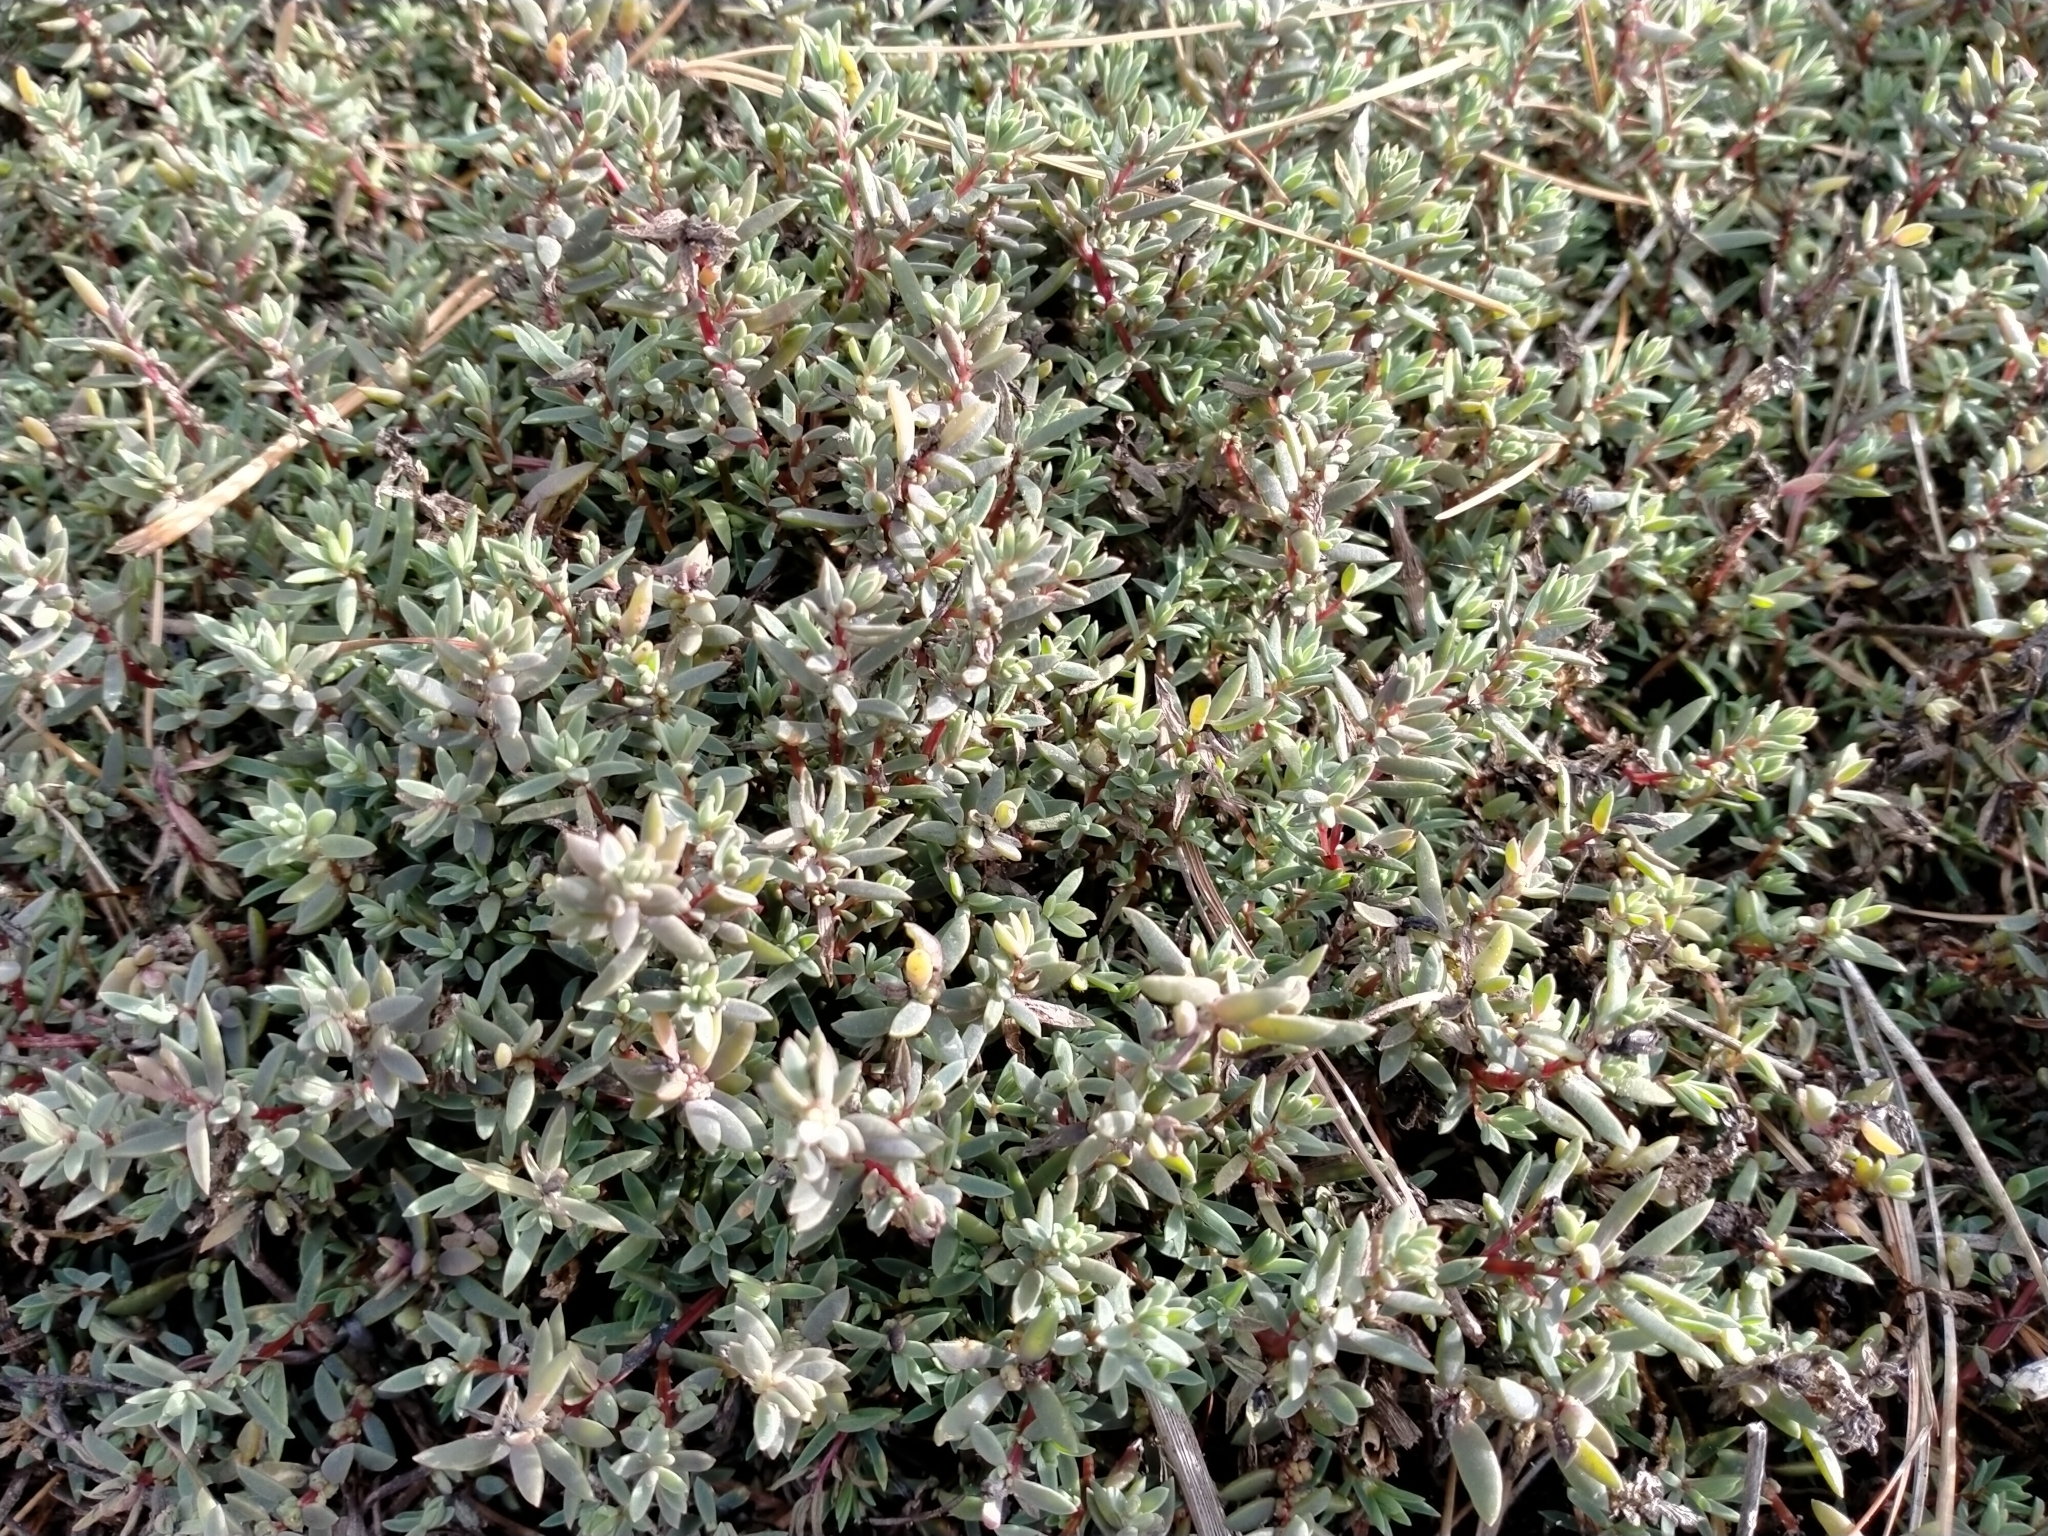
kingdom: Plantae
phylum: Tracheophyta
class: Magnoliopsida
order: Caryophyllales
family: Amaranthaceae
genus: Suaeda
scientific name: Suaeda novae-zelandiae
